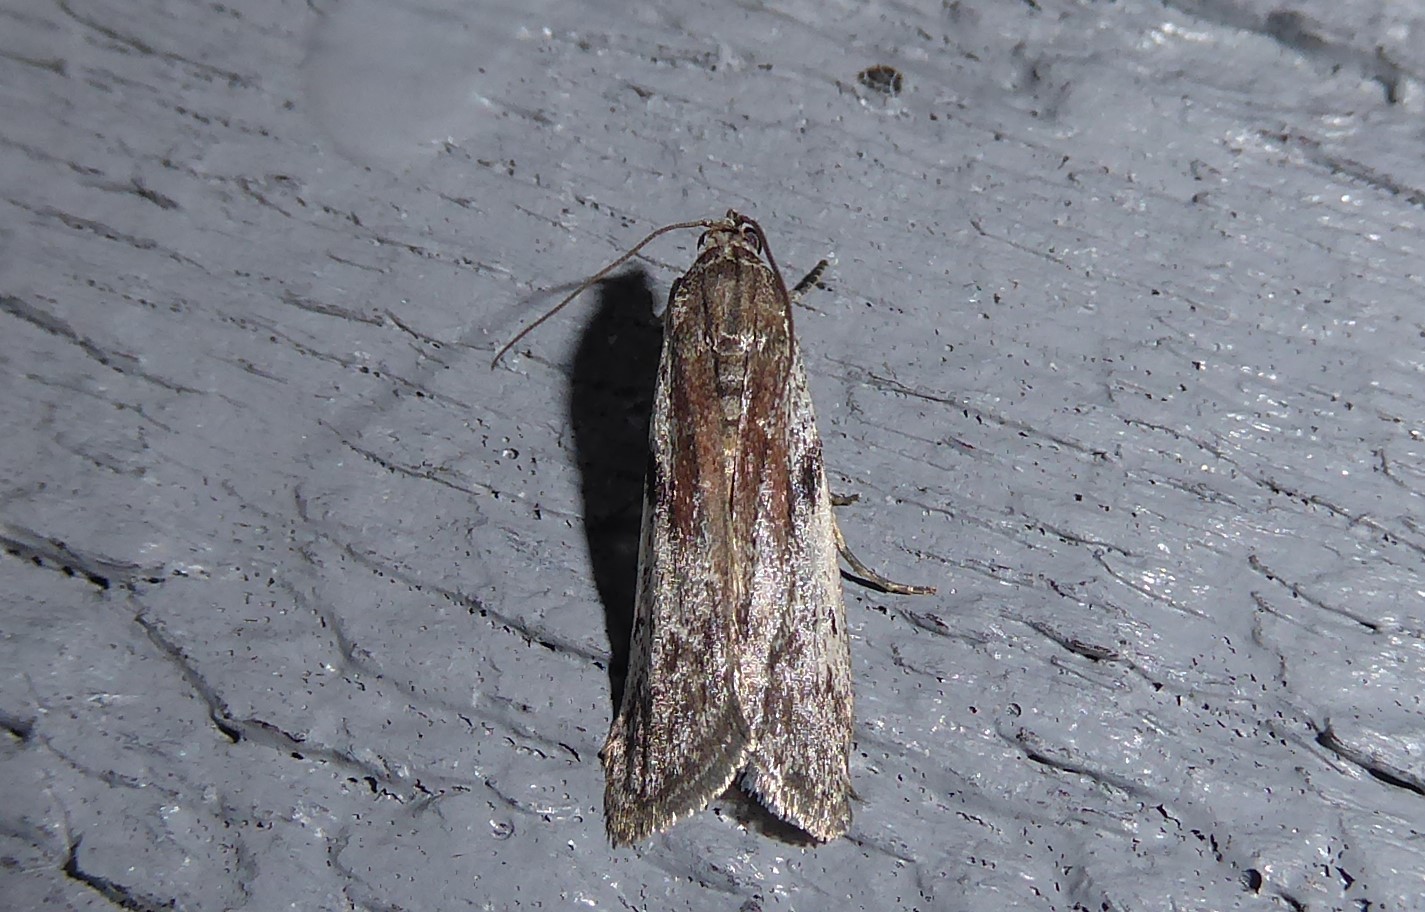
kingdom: Animalia
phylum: Arthropoda
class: Insecta
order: Lepidoptera
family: Pyralidae
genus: Patagoniodes
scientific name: Patagoniodes farinaria
